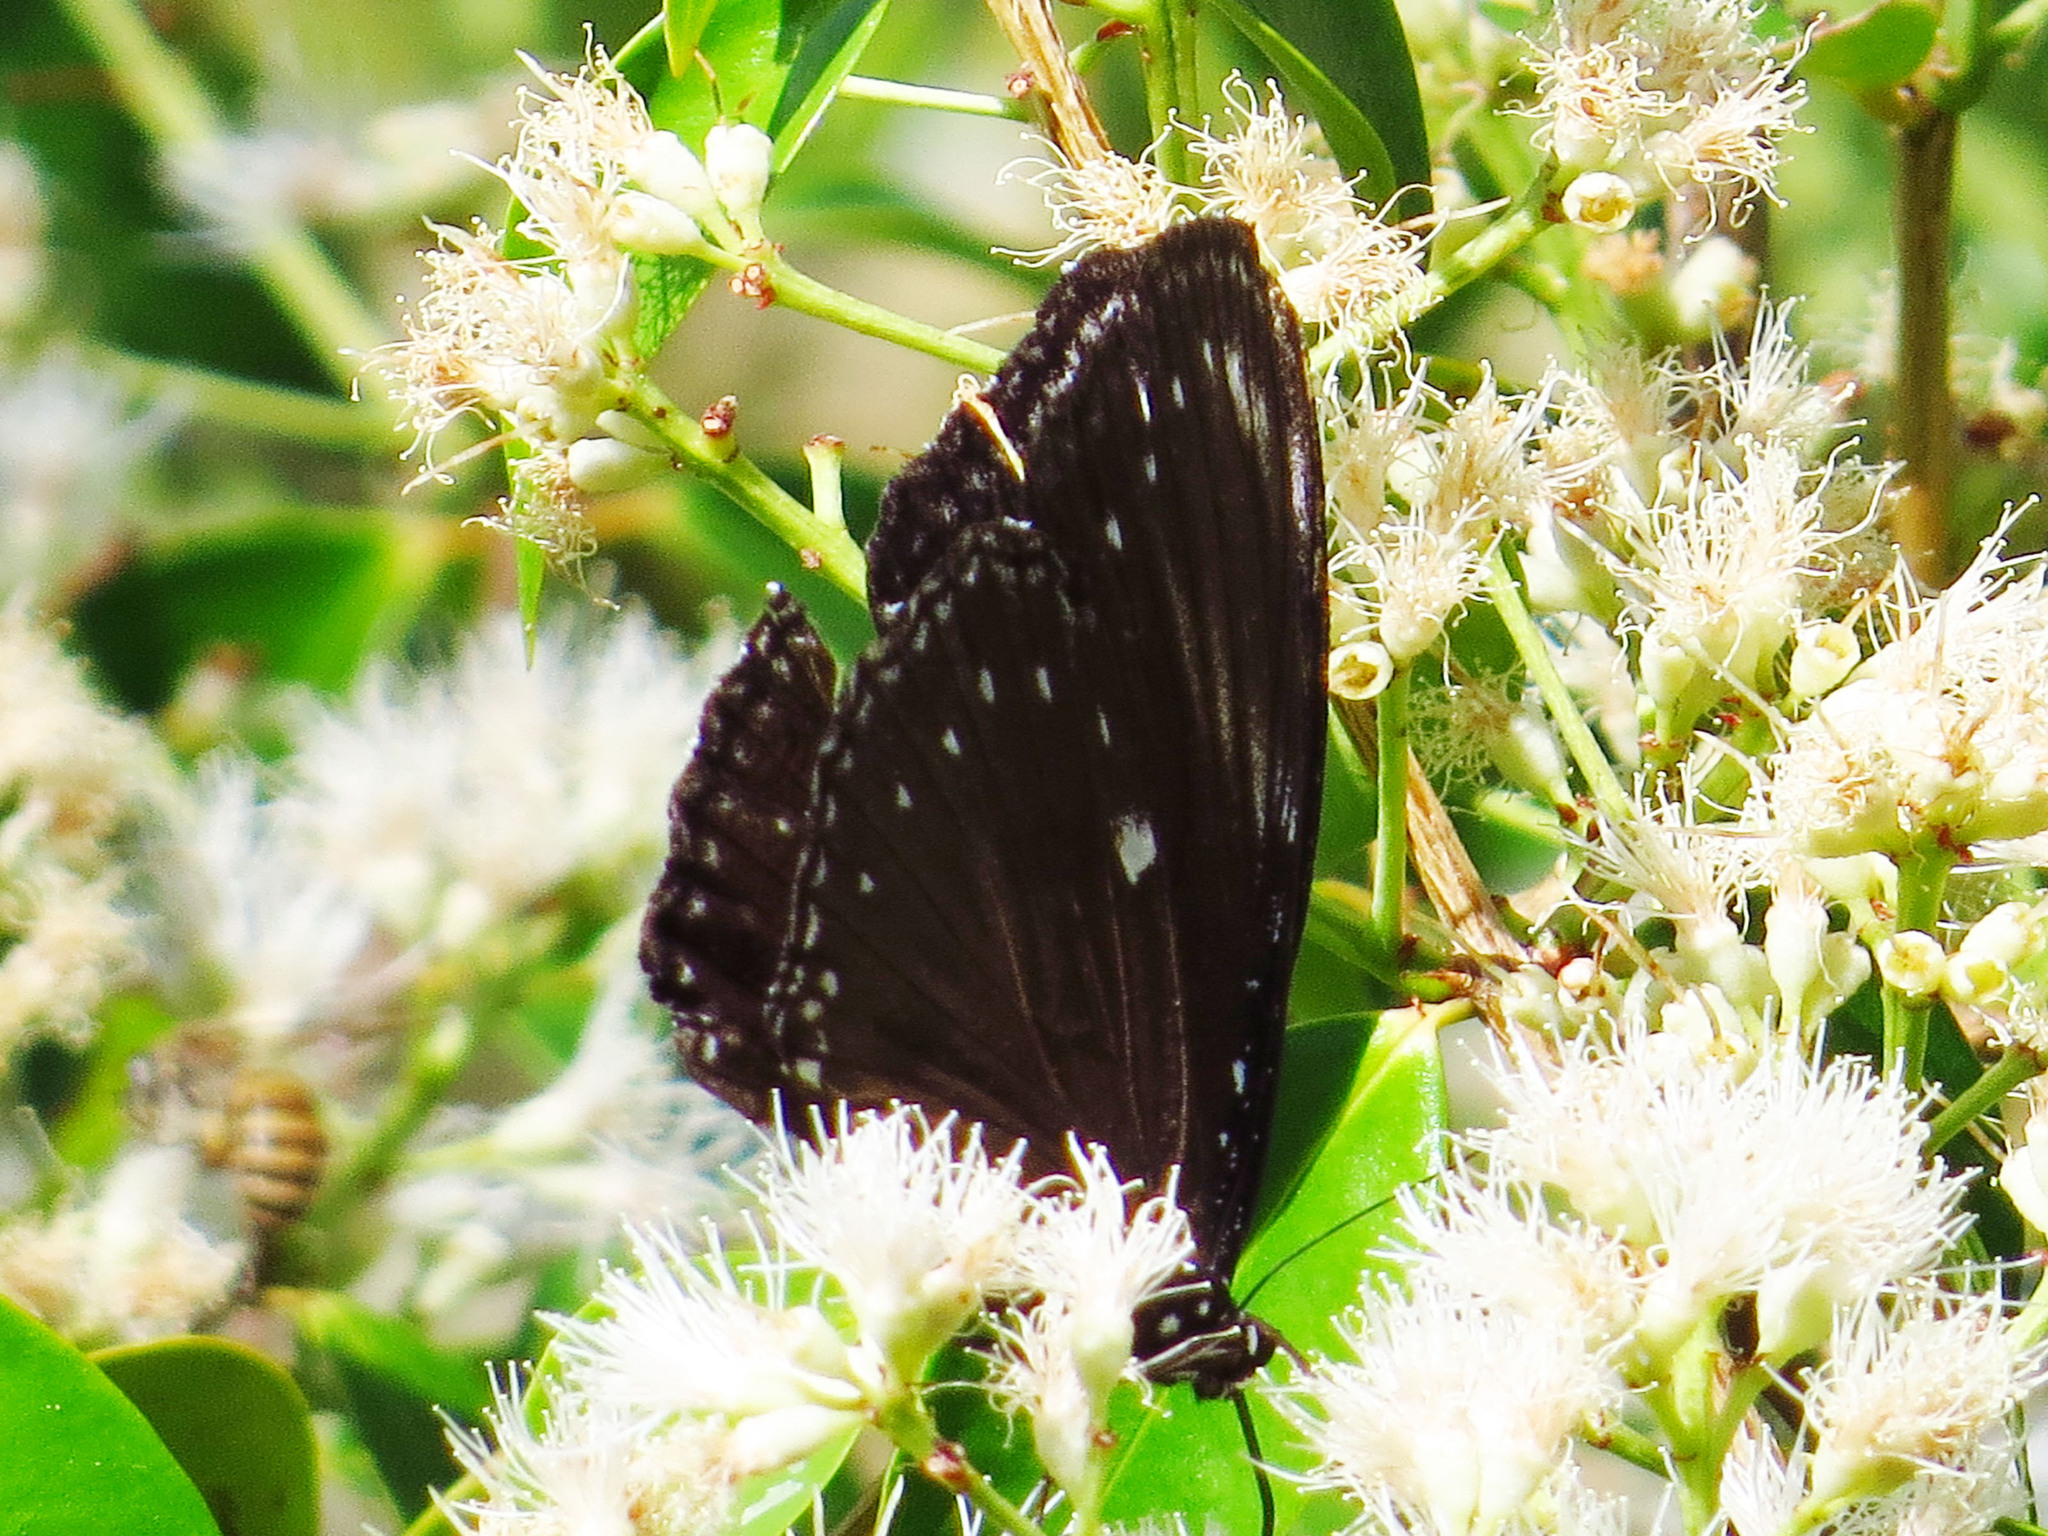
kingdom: Animalia
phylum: Arthropoda
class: Insecta
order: Lepidoptera
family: Nymphalidae
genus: Hypolimnas
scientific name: Hypolimnas anomala
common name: Malayan eggfly
